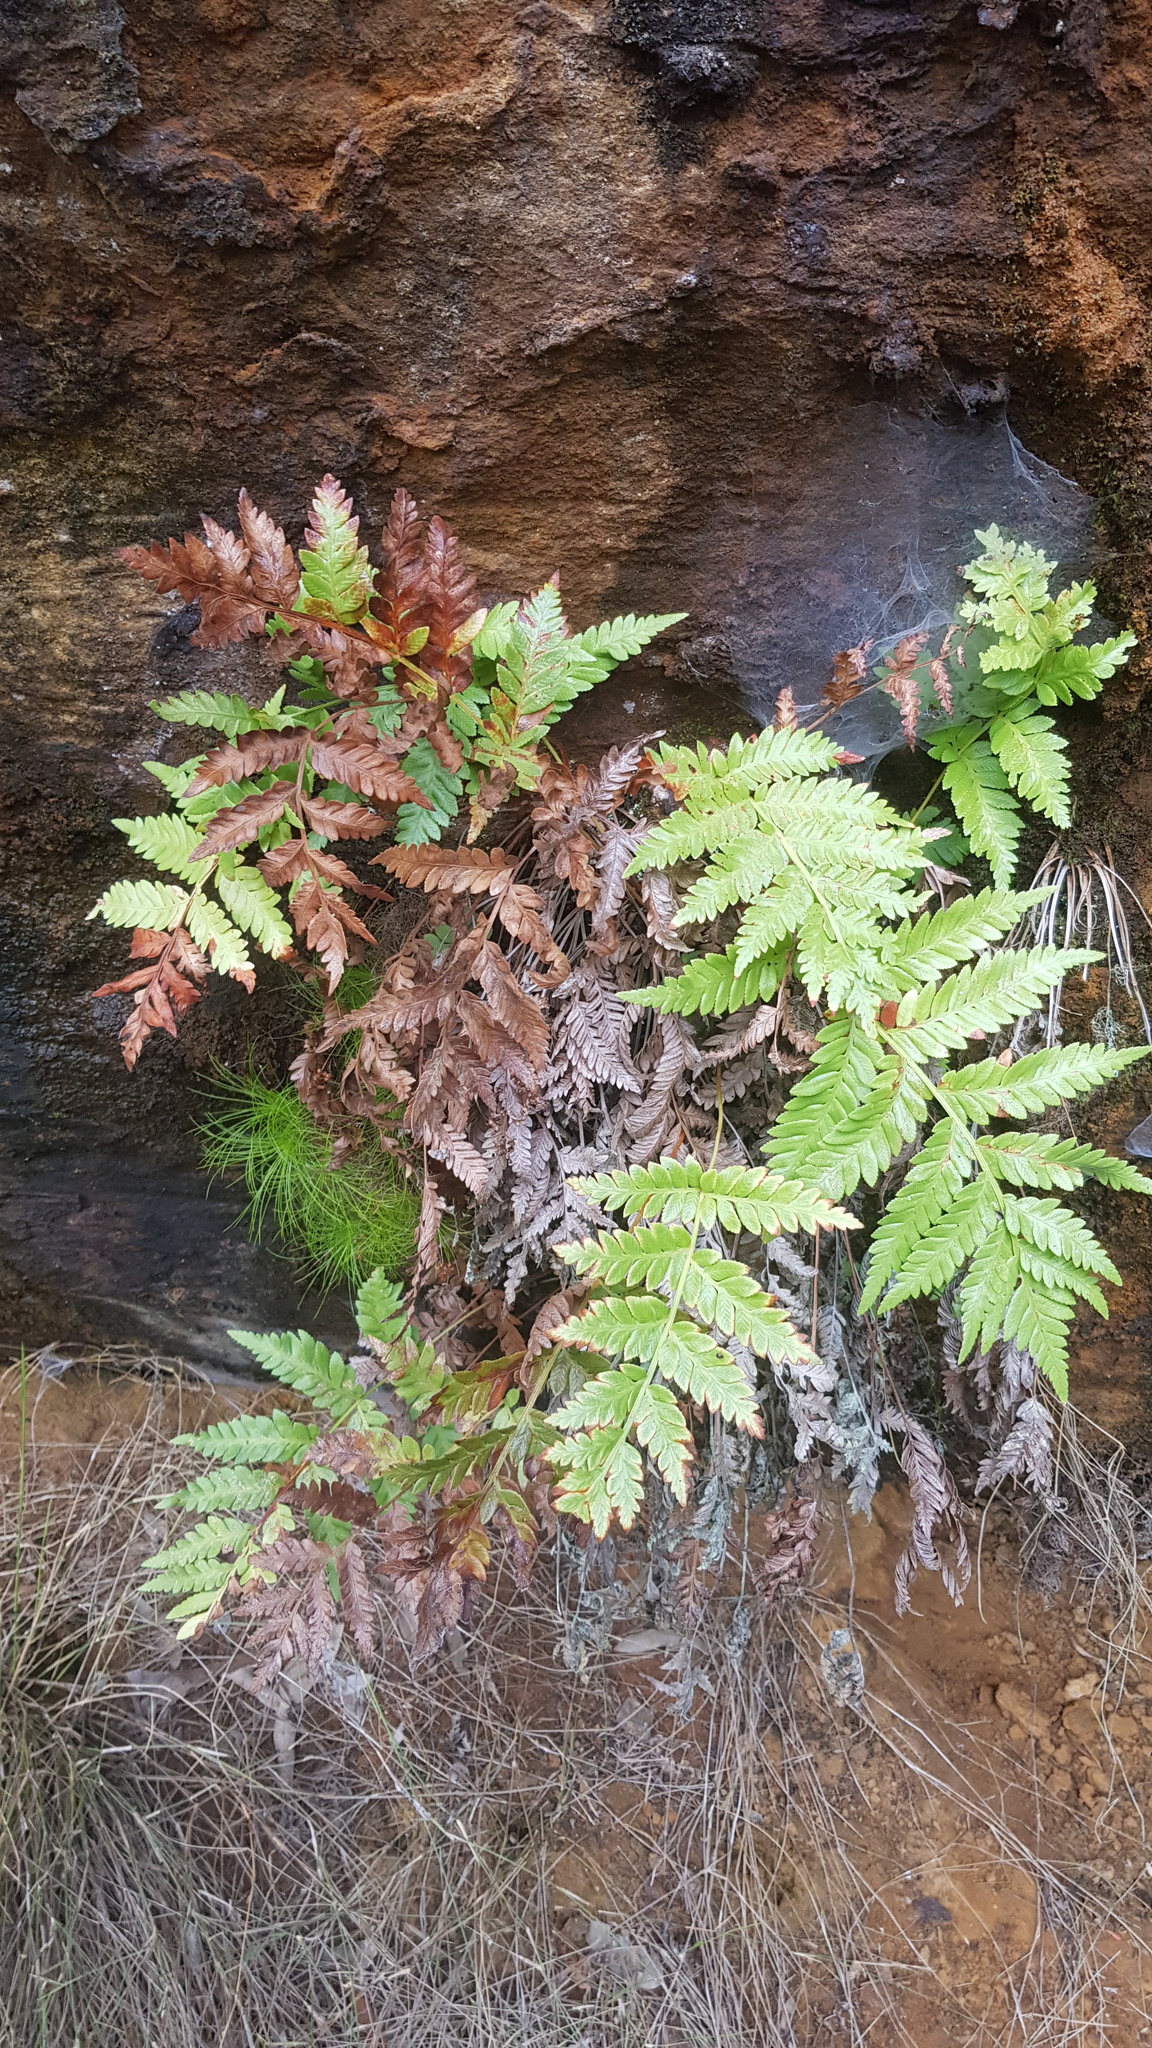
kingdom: Plantae
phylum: Tracheophyta
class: Polypodiopsida
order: Osmundales
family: Osmundaceae
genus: Todea
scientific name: Todea barbara
